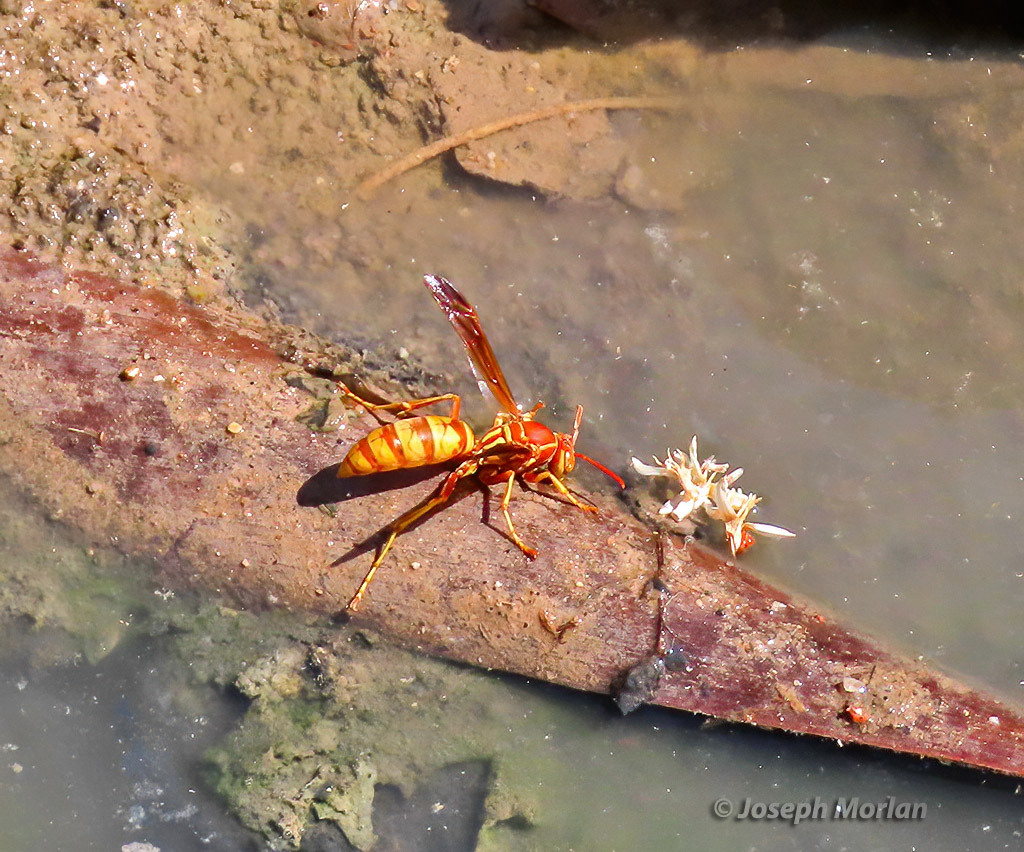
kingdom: Animalia
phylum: Arthropoda
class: Insecta
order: Hymenoptera
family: Eumenidae
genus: Polistes
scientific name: Polistes aurifer
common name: Paper wasp
